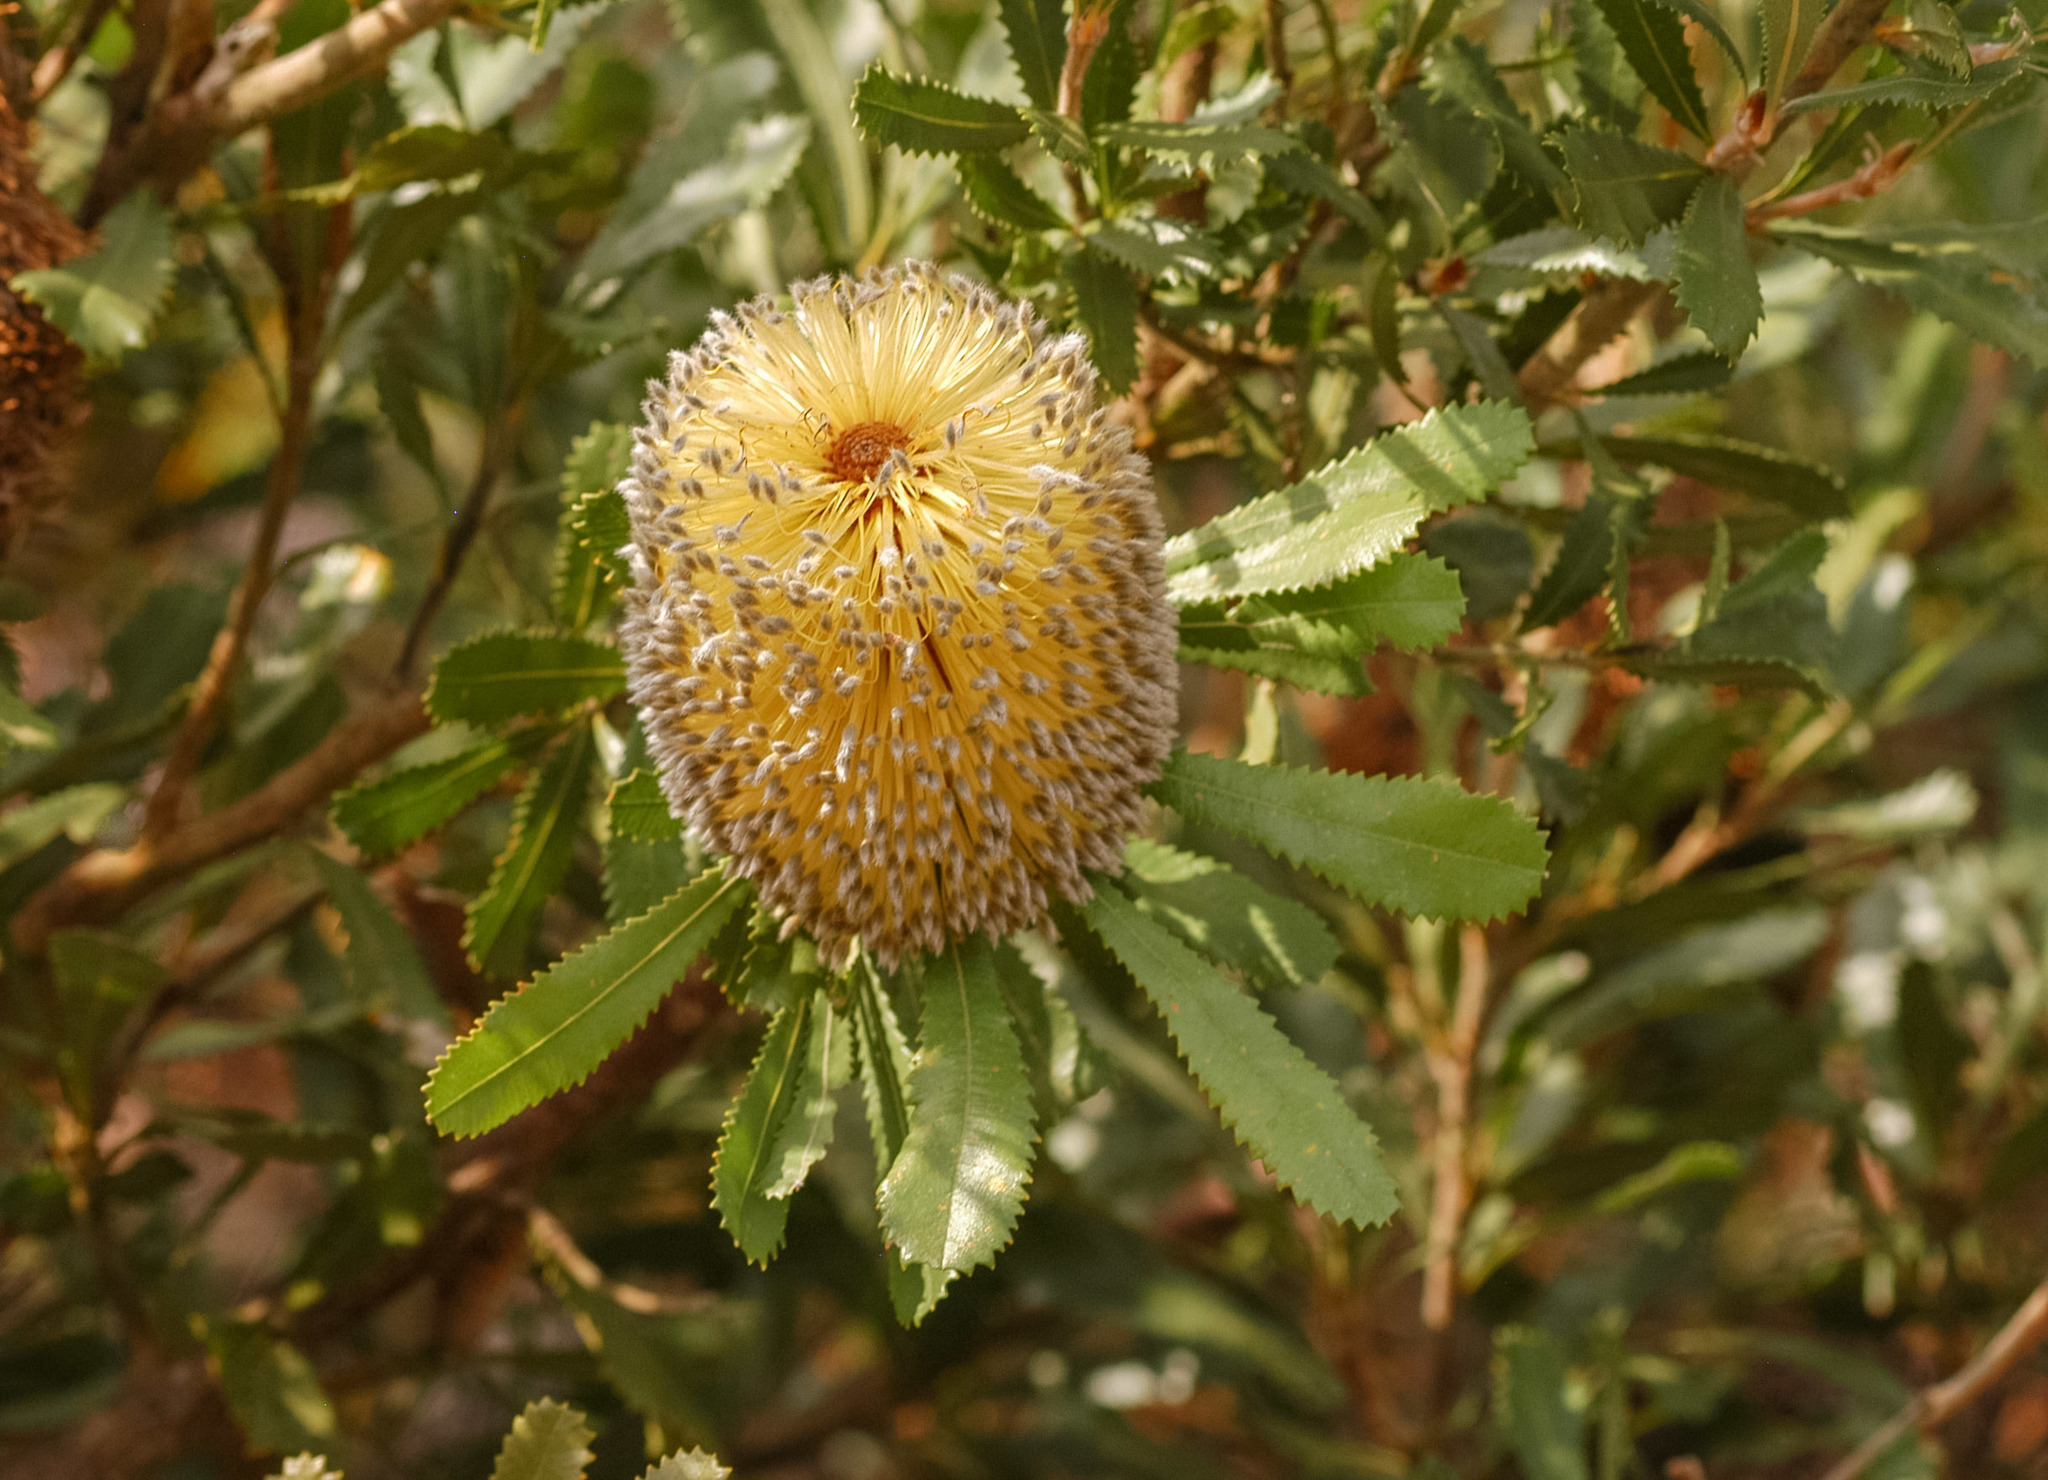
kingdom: Plantae
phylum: Tracheophyta
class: Magnoliopsida
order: Proteales
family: Proteaceae
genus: Banksia
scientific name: Banksia ornata
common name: Desert banksia
